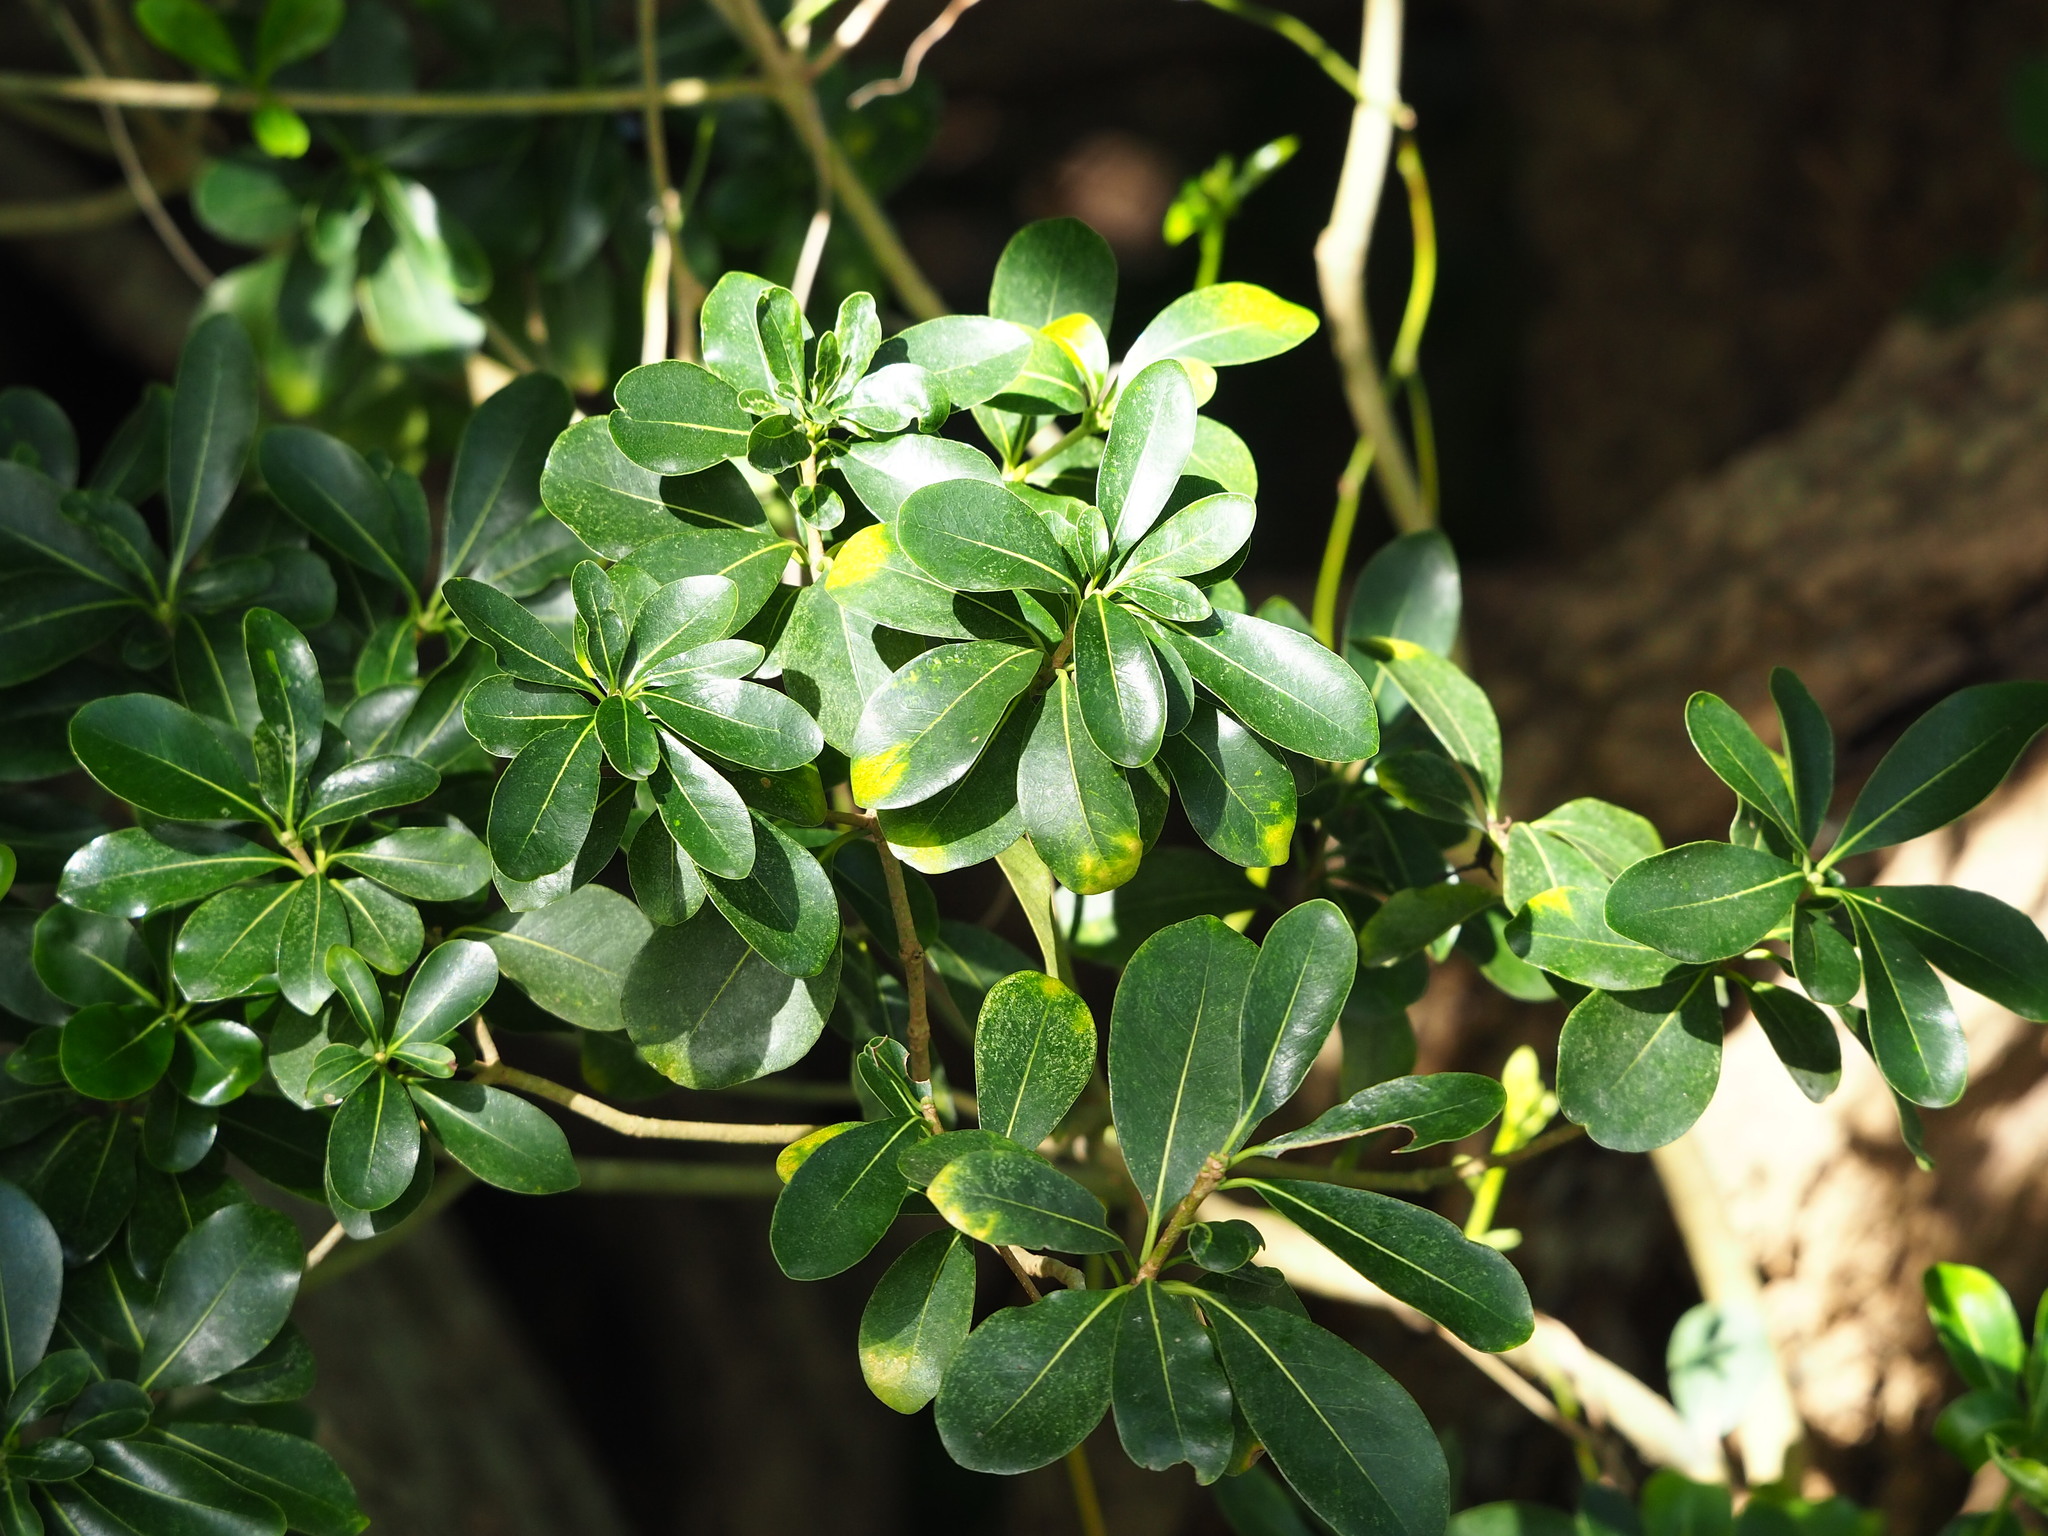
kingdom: Plantae
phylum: Tracheophyta
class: Magnoliopsida
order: Apiales
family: Pittosporaceae
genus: Pittosporum
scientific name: Pittosporum tobira
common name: Japanese cheesewood
